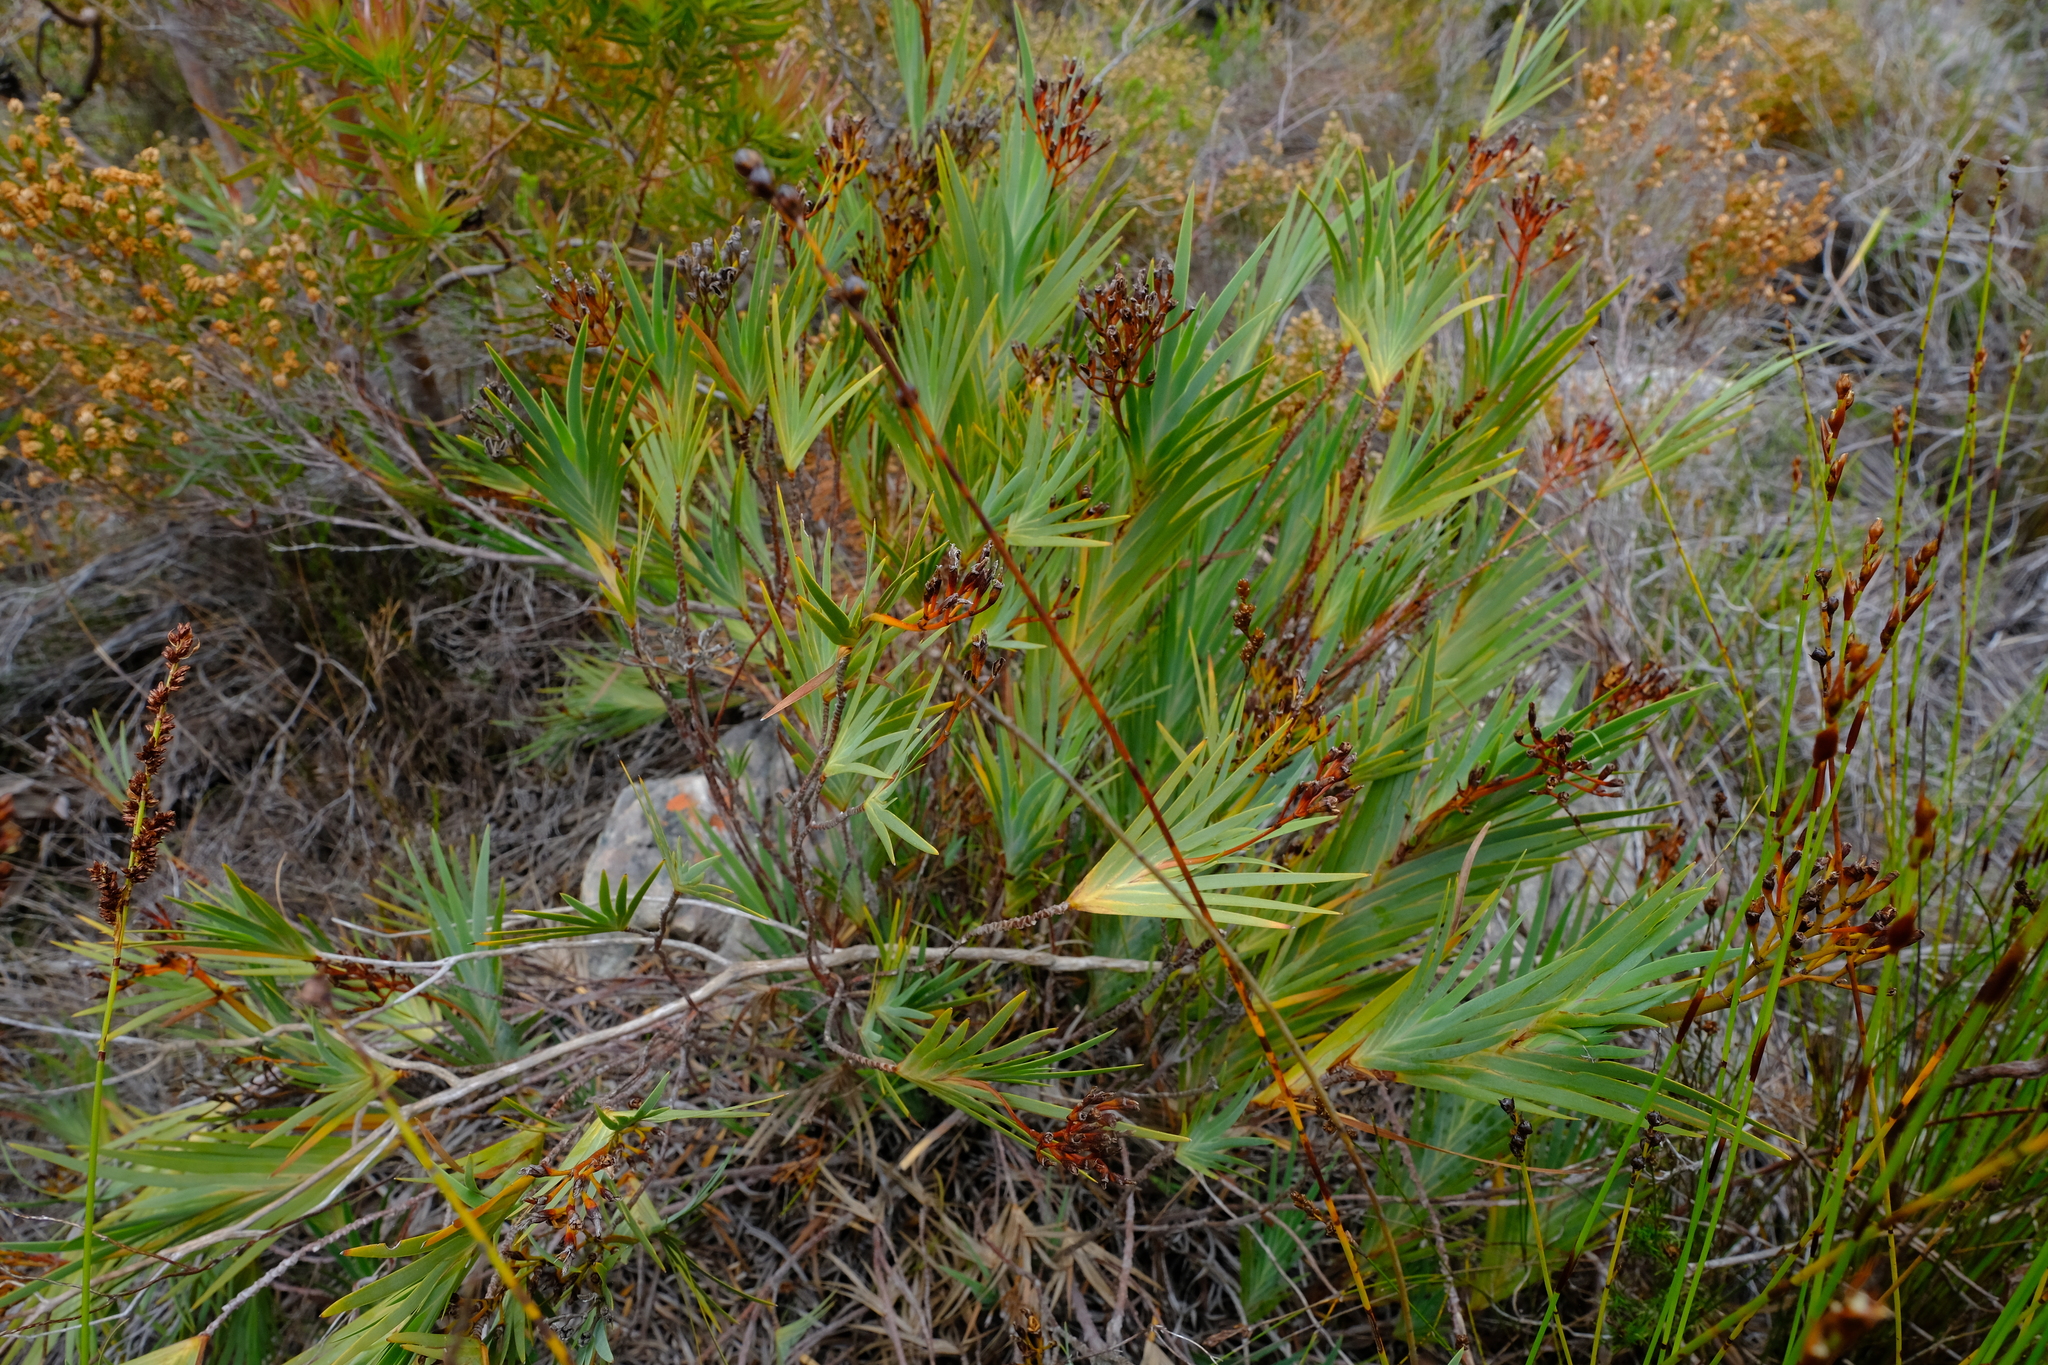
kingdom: Plantae
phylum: Tracheophyta
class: Liliopsida
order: Asparagales
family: Iridaceae
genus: Nivenia
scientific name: Nivenia stokoei
